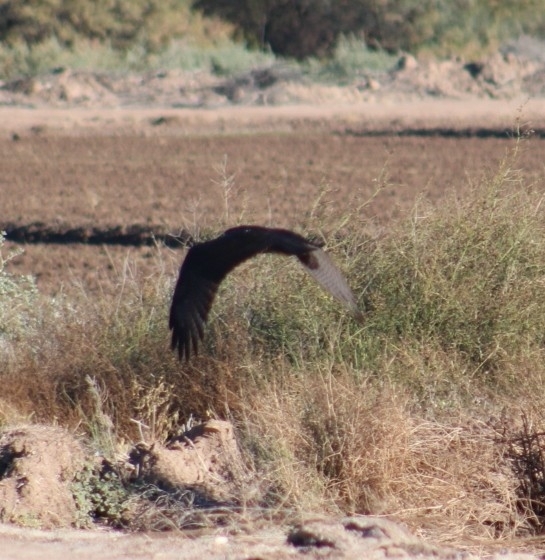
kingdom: Animalia
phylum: Chordata
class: Aves
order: Accipitriformes
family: Accipitridae
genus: Buteo
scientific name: Buteo albonotatus
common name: Zone-tailed hawk
